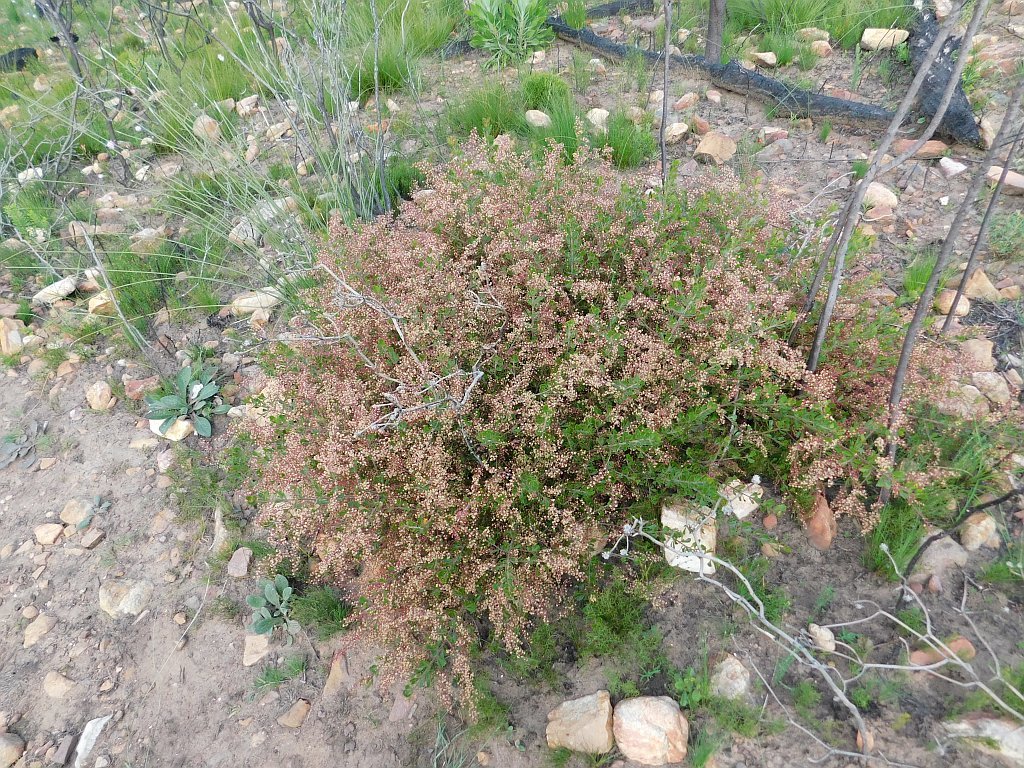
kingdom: Plantae
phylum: Tracheophyta
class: Magnoliopsida
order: Sapindales
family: Anacardiaceae
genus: Searsia
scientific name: Searsia scytophylla
